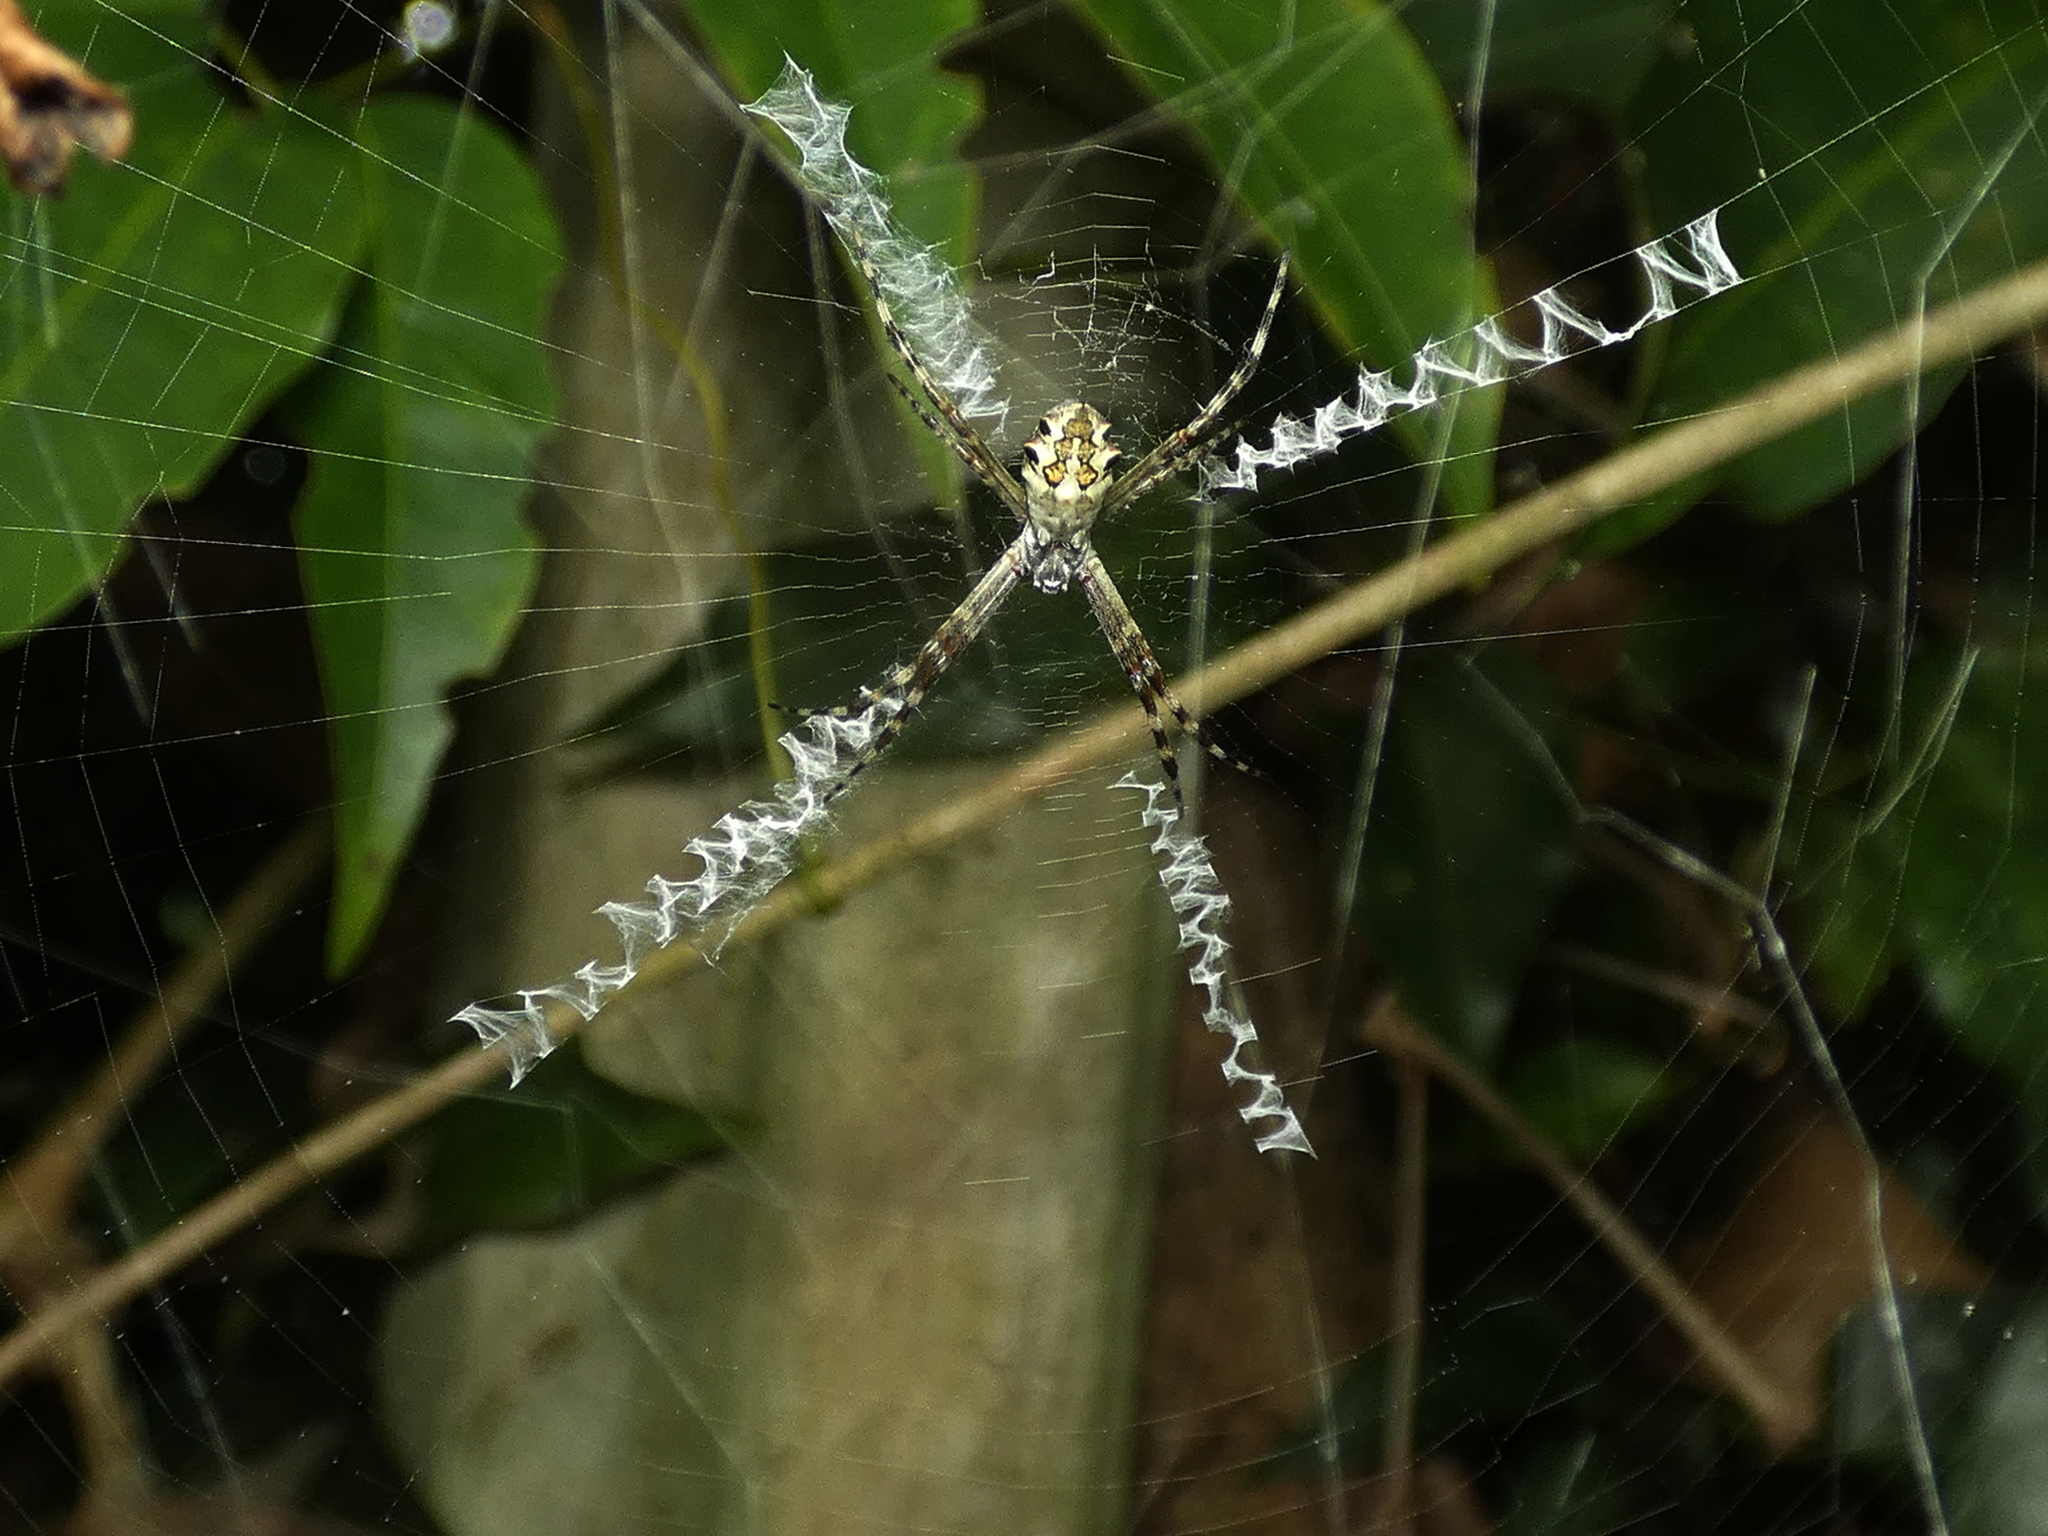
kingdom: Animalia
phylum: Arthropoda
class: Arachnida
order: Araneae
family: Araneidae
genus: Argiope
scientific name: Argiope argentata
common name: Orb weavers
